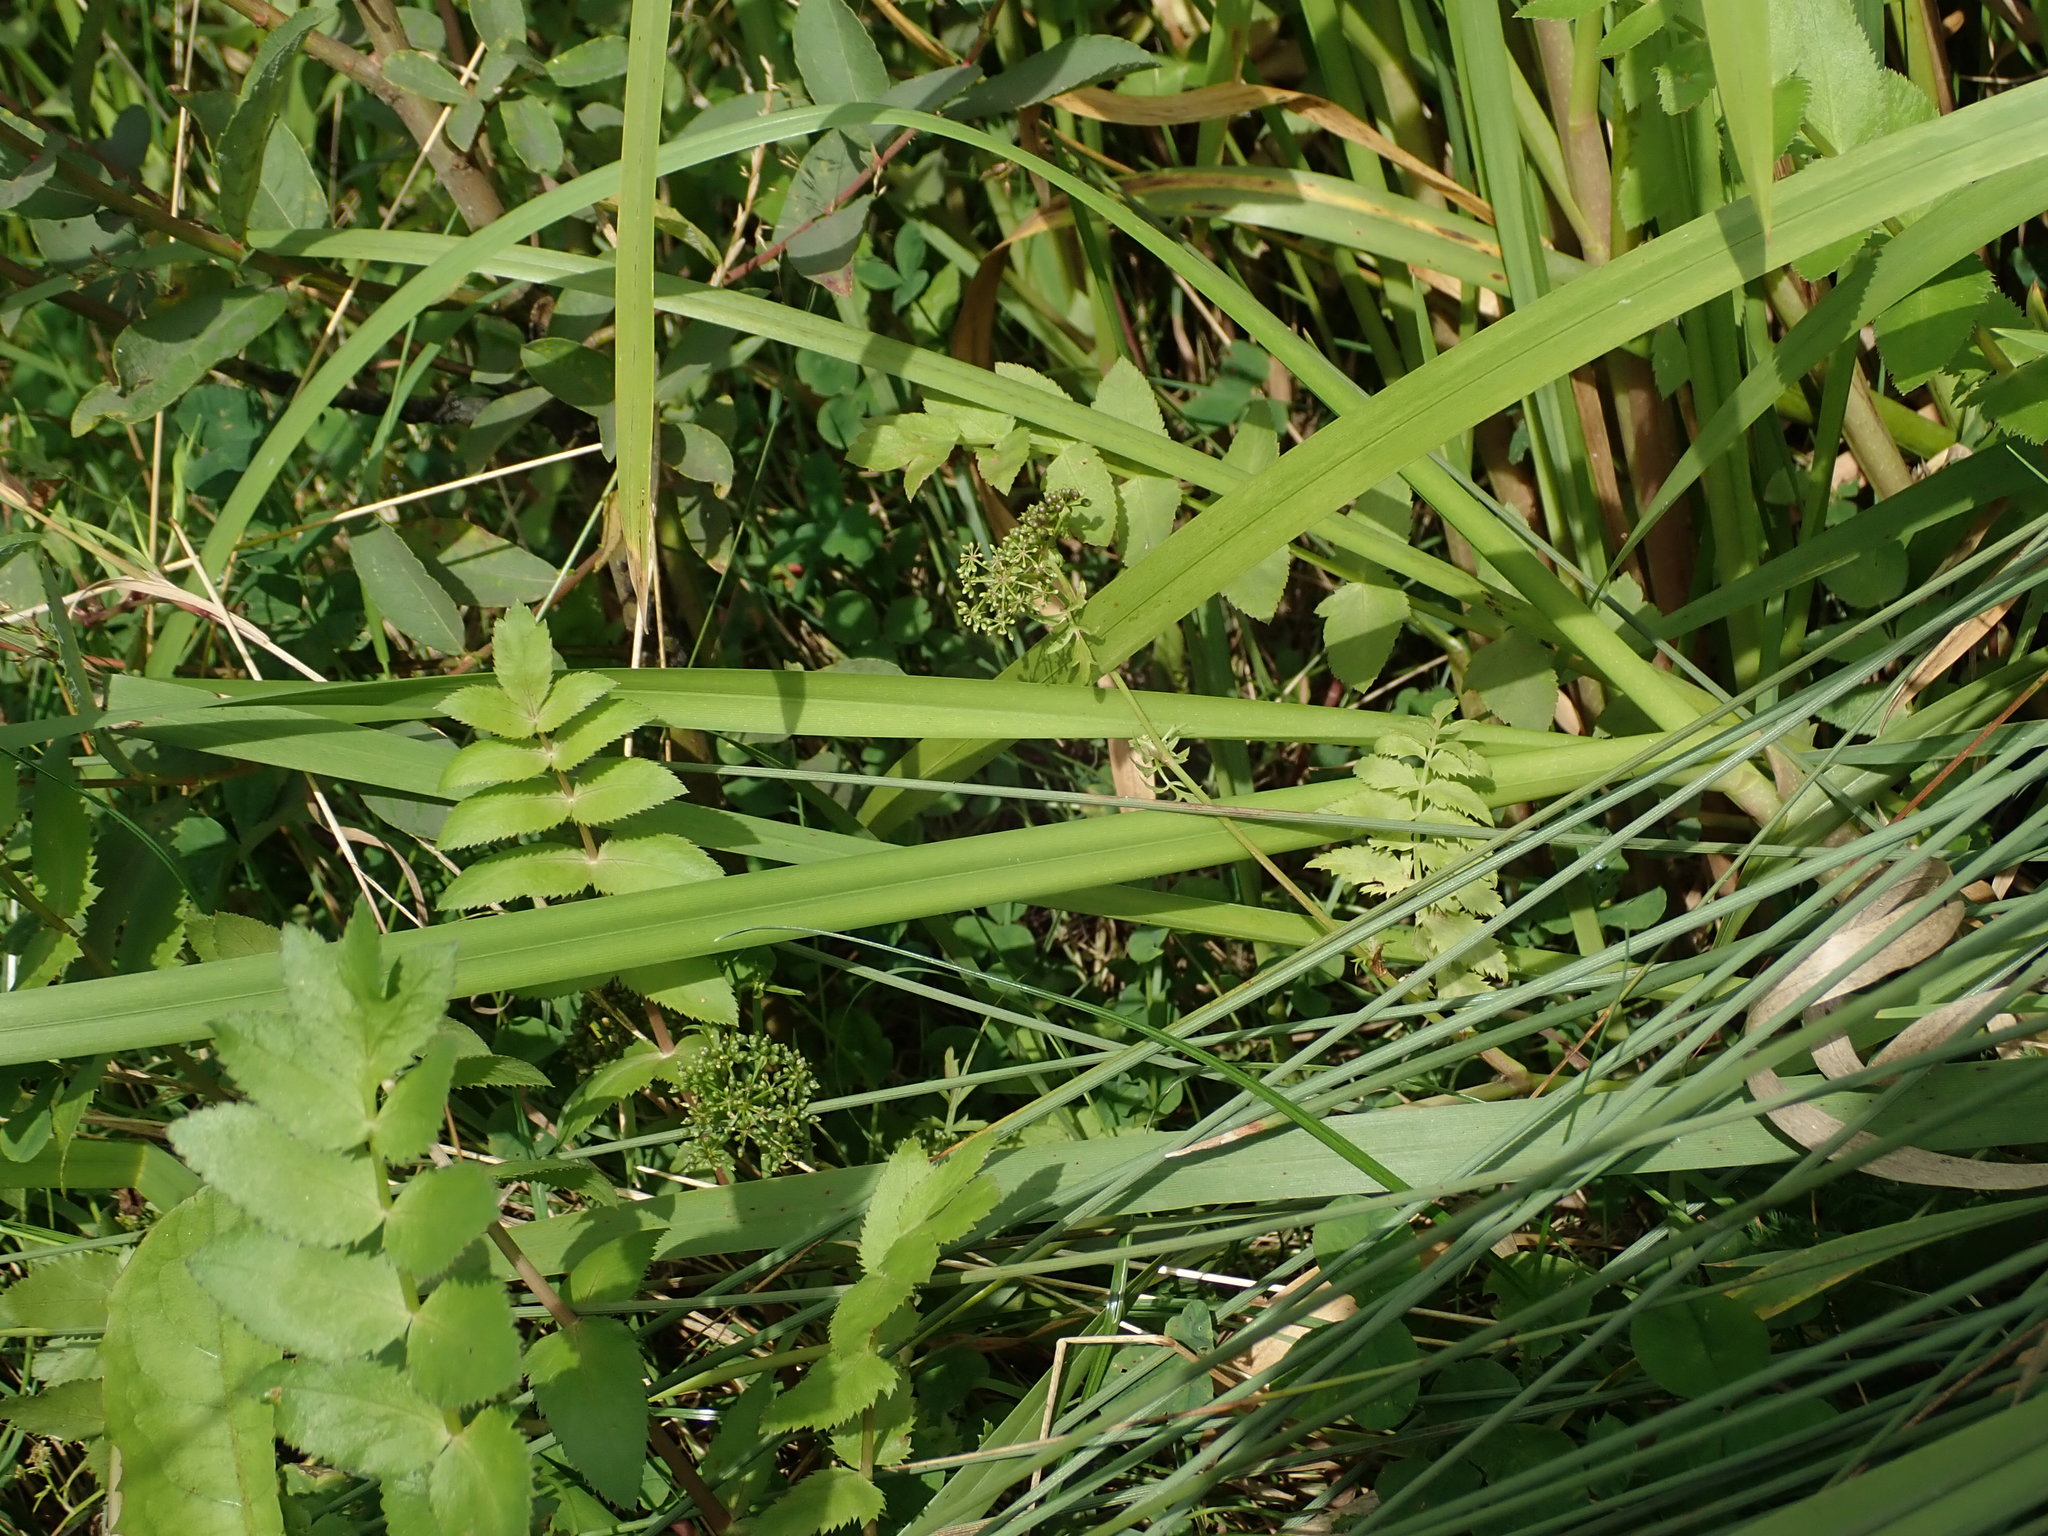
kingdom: Plantae
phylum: Tracheophyta
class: Magnoliopsida
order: Apiales
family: Apiaceae
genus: Helosciadium
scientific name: Helosciadium nodiflorum
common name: Fool's-watercress
